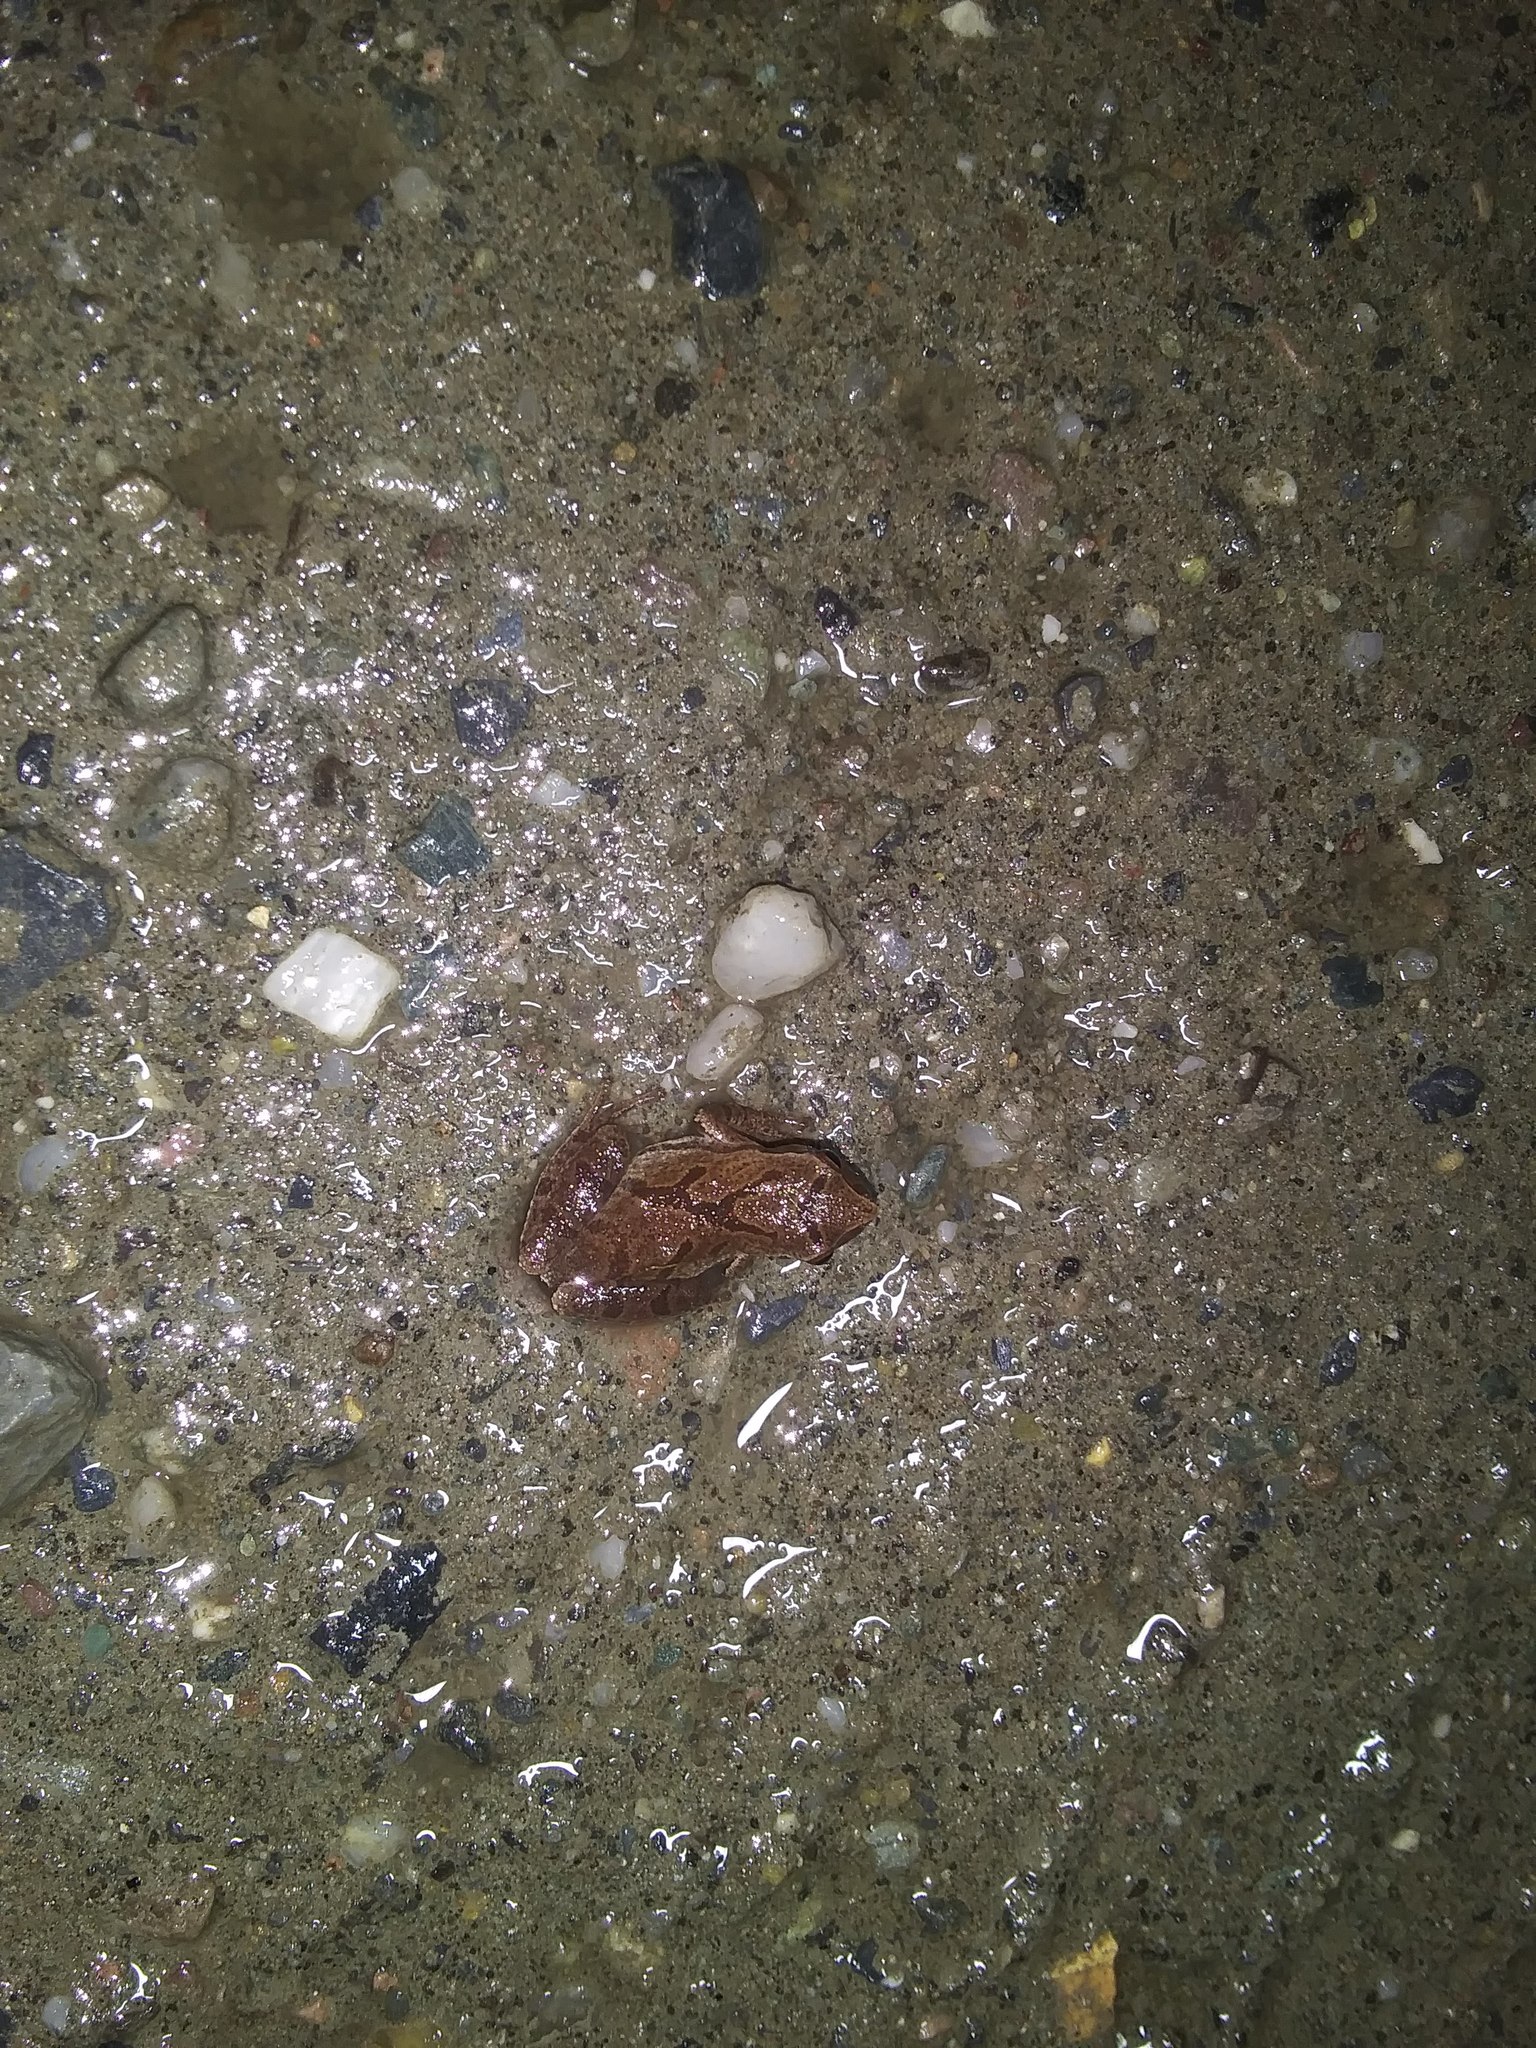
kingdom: Animalia
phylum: Chordata
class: Amphibia
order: Anura
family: Hylidae
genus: Pseudacris
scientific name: Pseudacris crucifer
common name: Spring peeper
